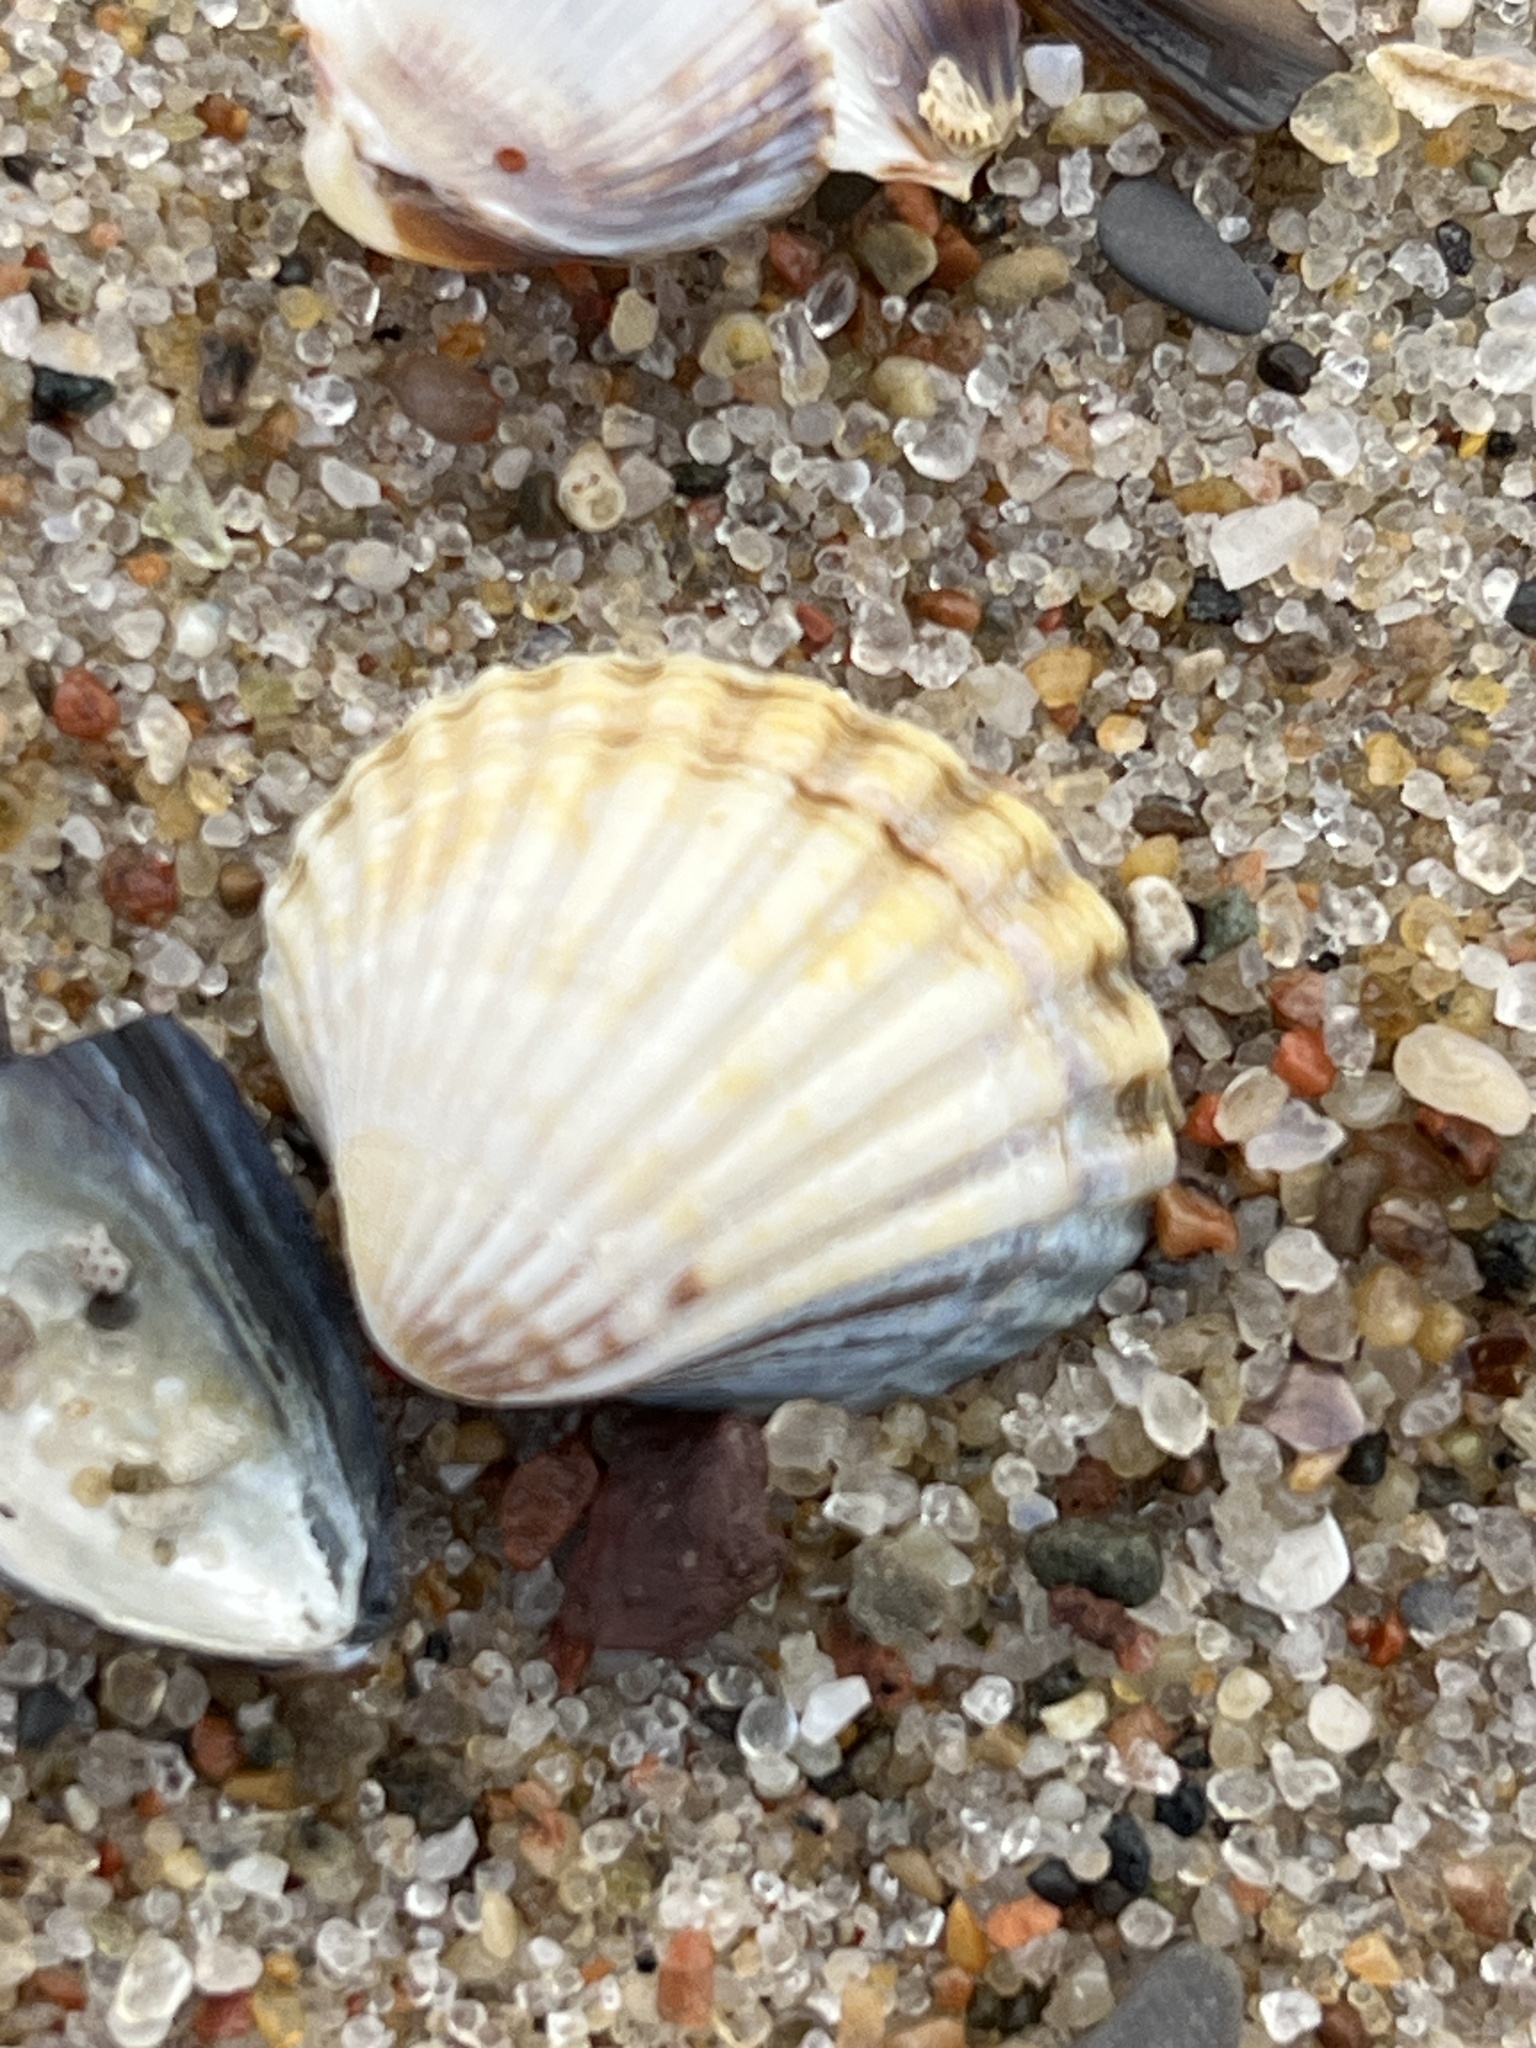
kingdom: Animalia
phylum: Mollusca
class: Bivalvia
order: Cardiida
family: Cardiidae
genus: Cerastoderma
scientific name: Cerastoderma glaucum
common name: Lagoon cockle
